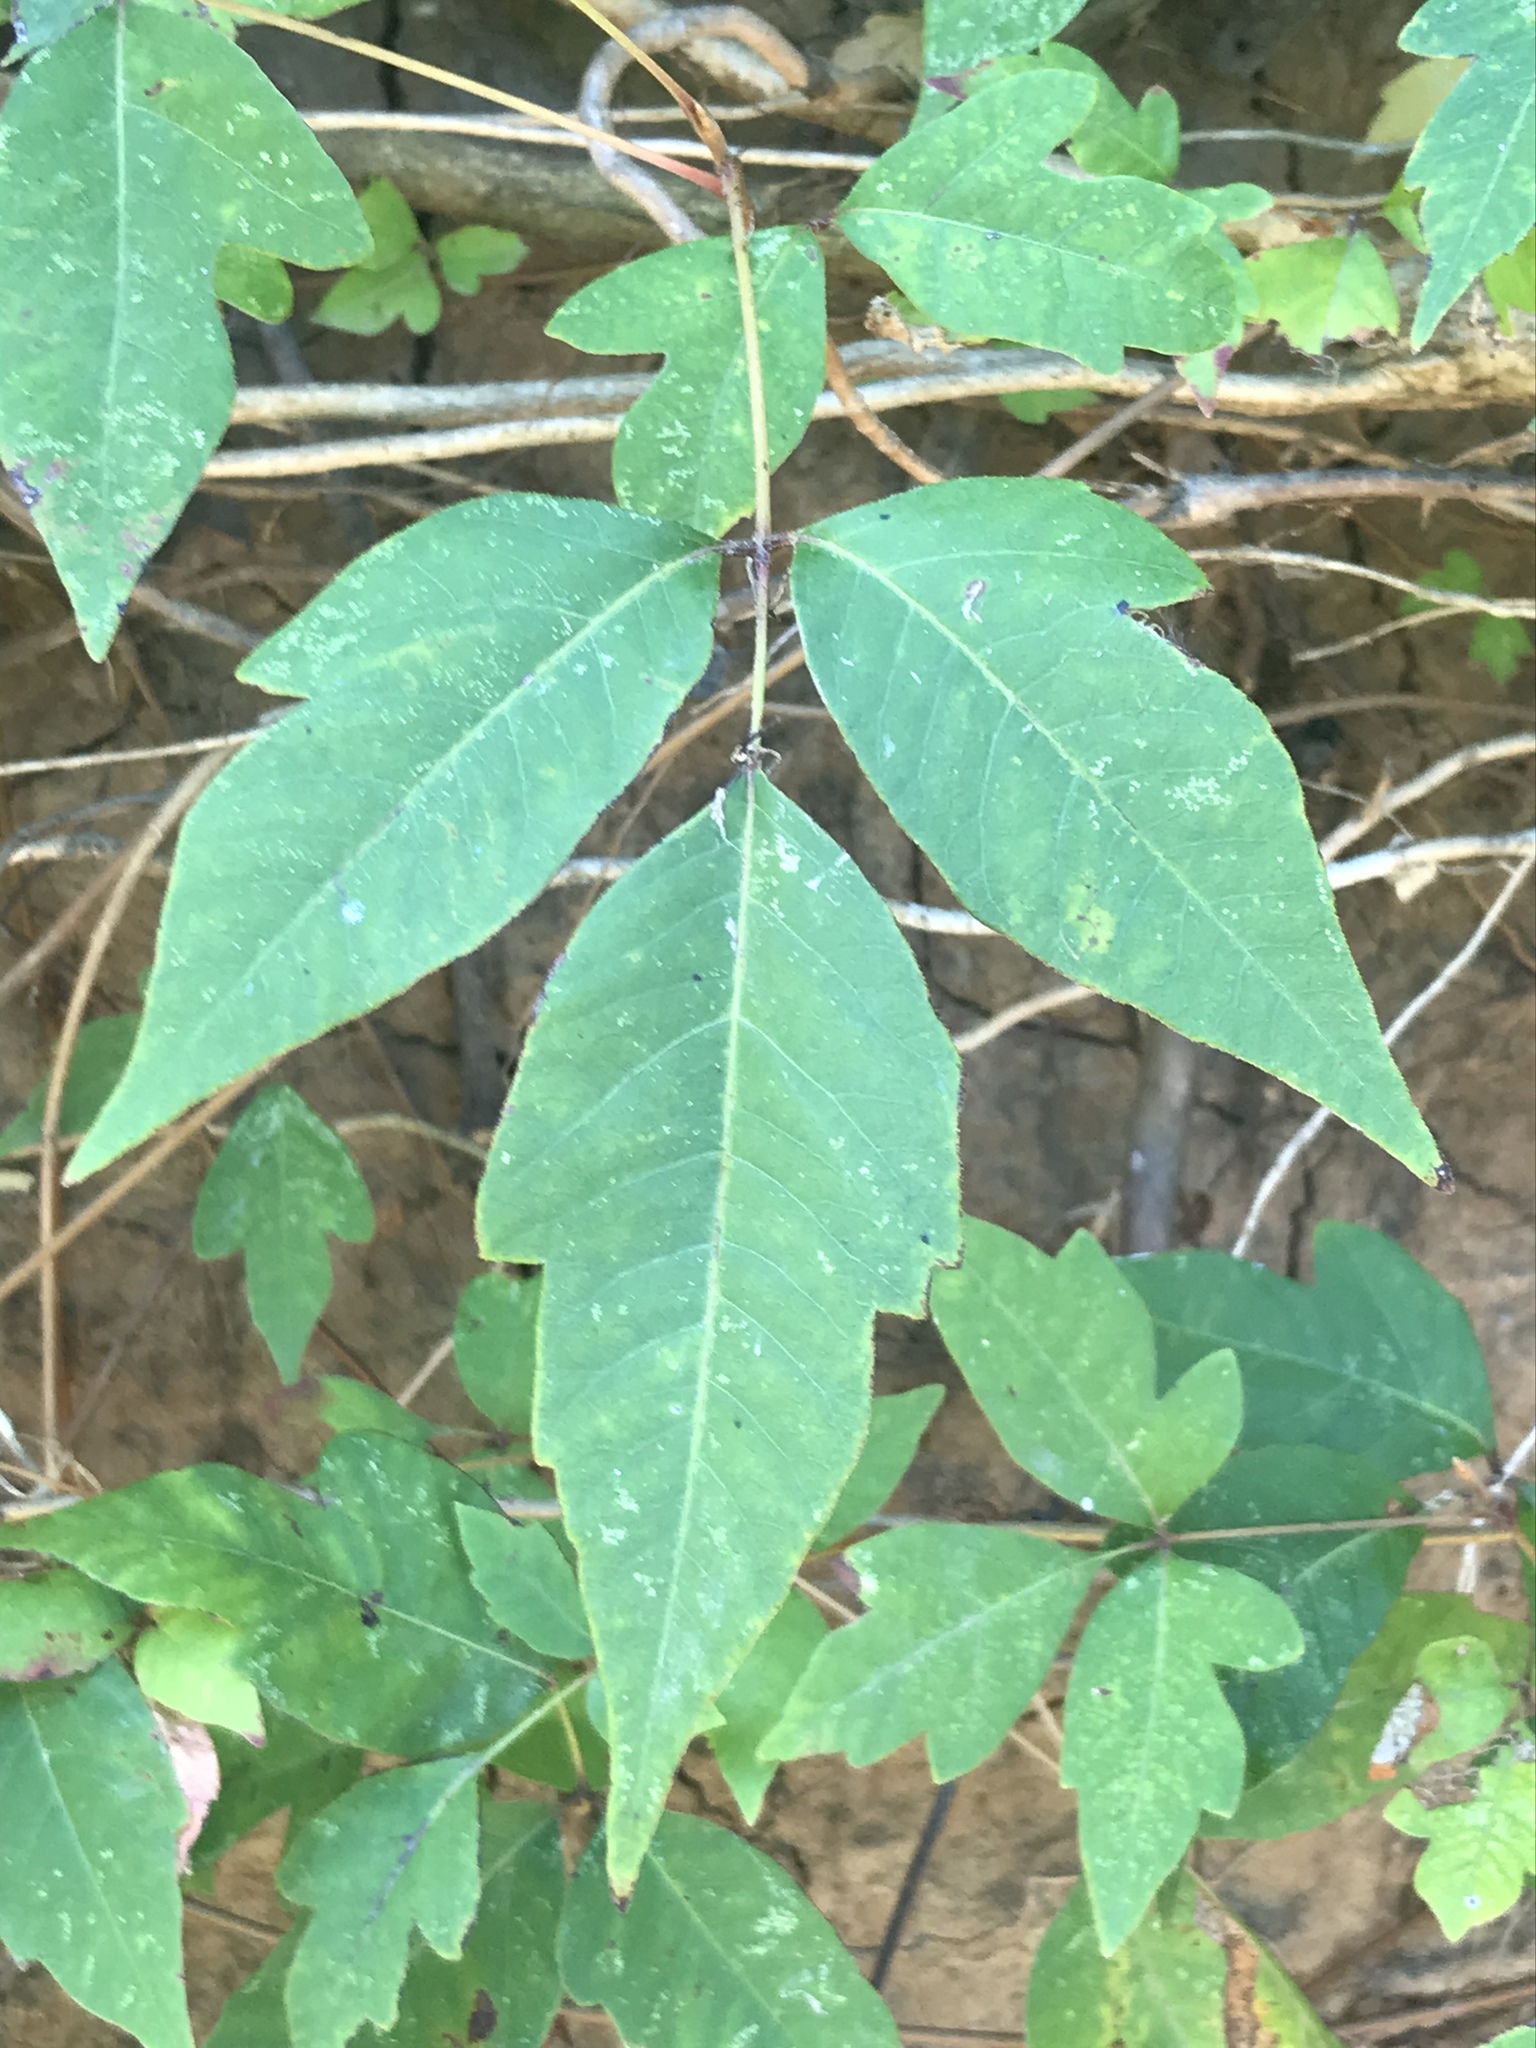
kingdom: Plantae
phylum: Tracheophyta
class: Magnoliopsida
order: Sapindales
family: Anacardiaceae
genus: Toxicodendron
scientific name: Toxicodendron radicans
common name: Poison ivy
